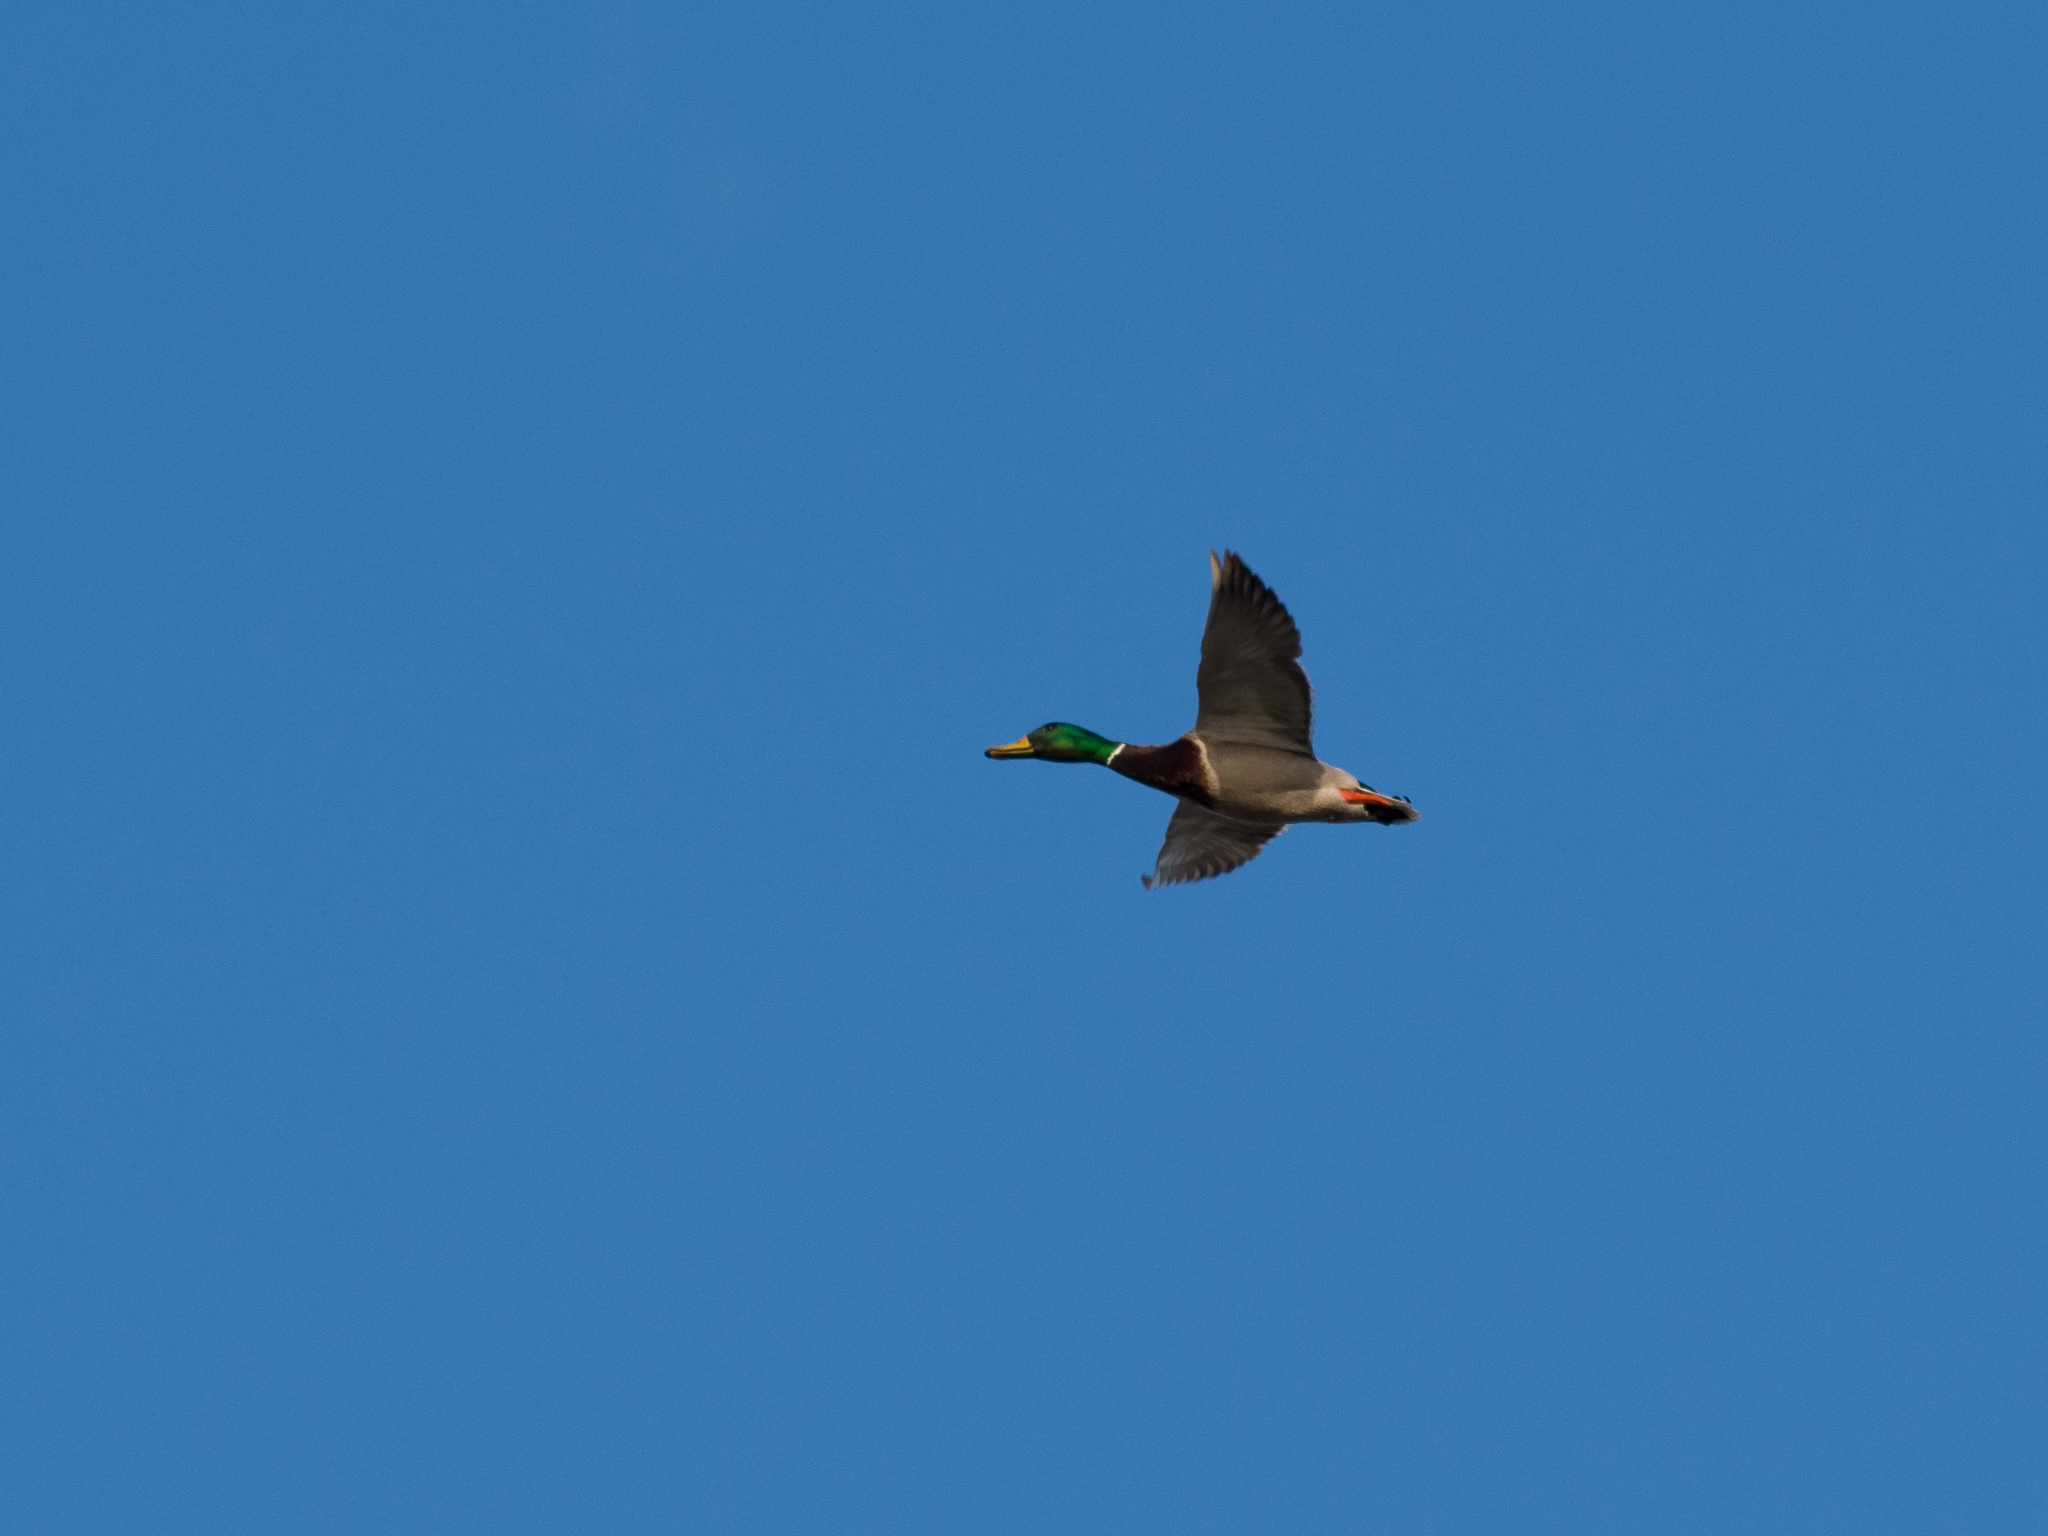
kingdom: Animalia
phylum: Chordata
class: Aves
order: Anseriformes
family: Anatidae
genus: Anas
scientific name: Anas platyrhynchos
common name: Mallard
